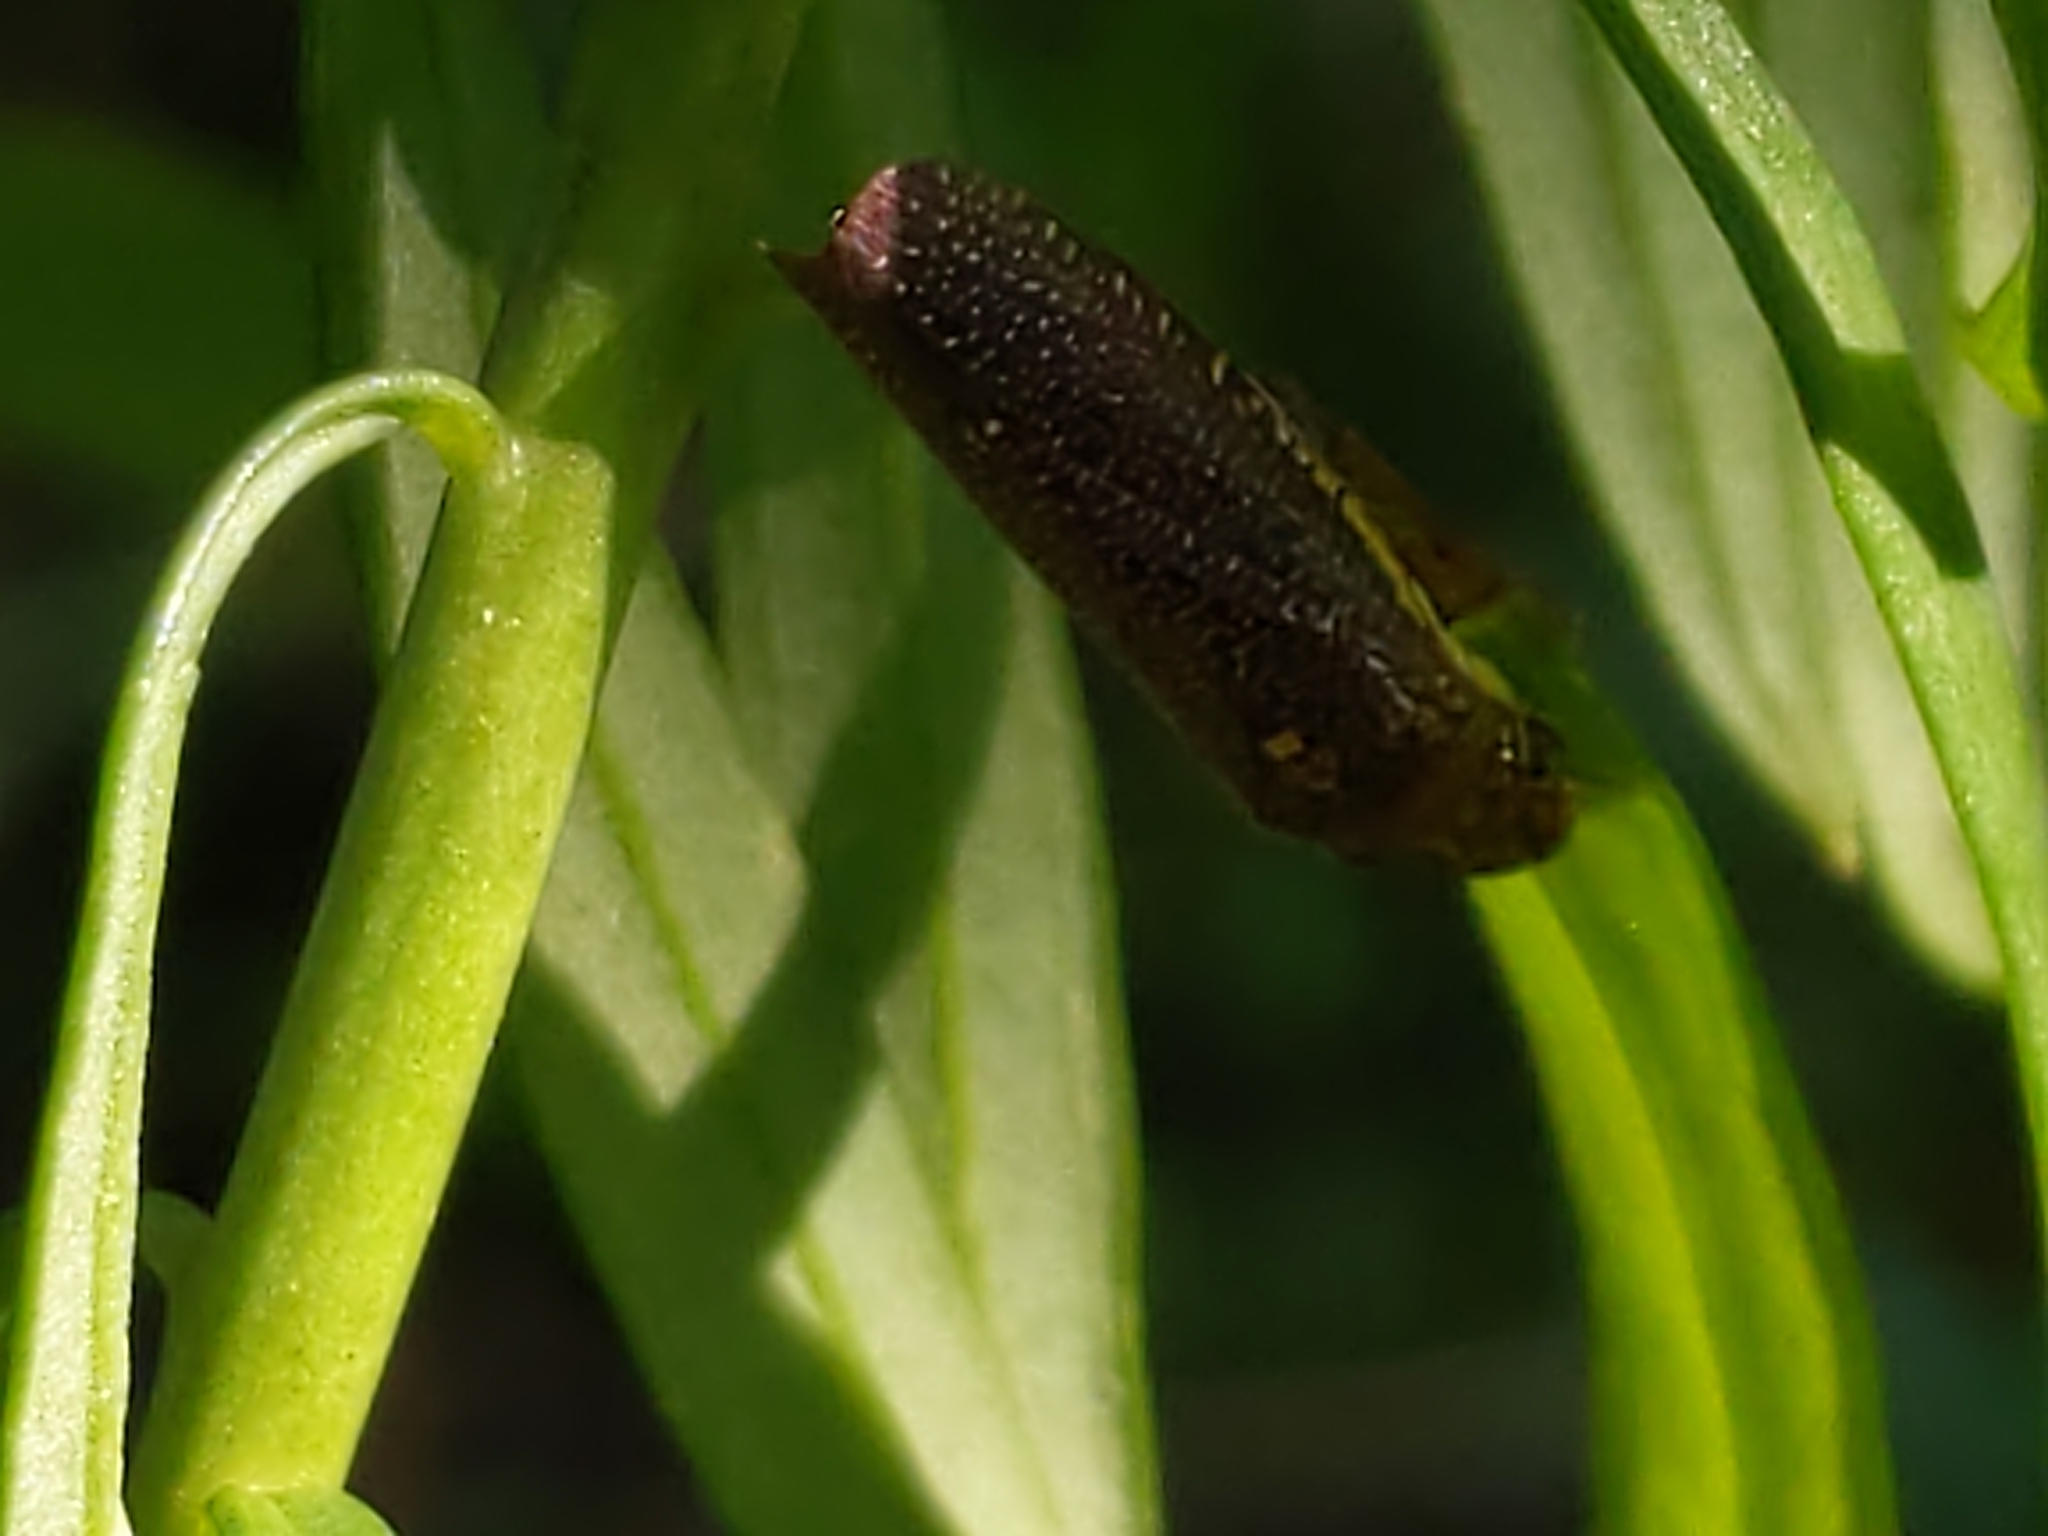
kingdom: Animalia
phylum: Arthropoda
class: Insecta
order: Hemiptera
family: Cicadellidae
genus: Paraulacizes
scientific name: Paraulacizes irrorata
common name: Speckled sharpshooter
